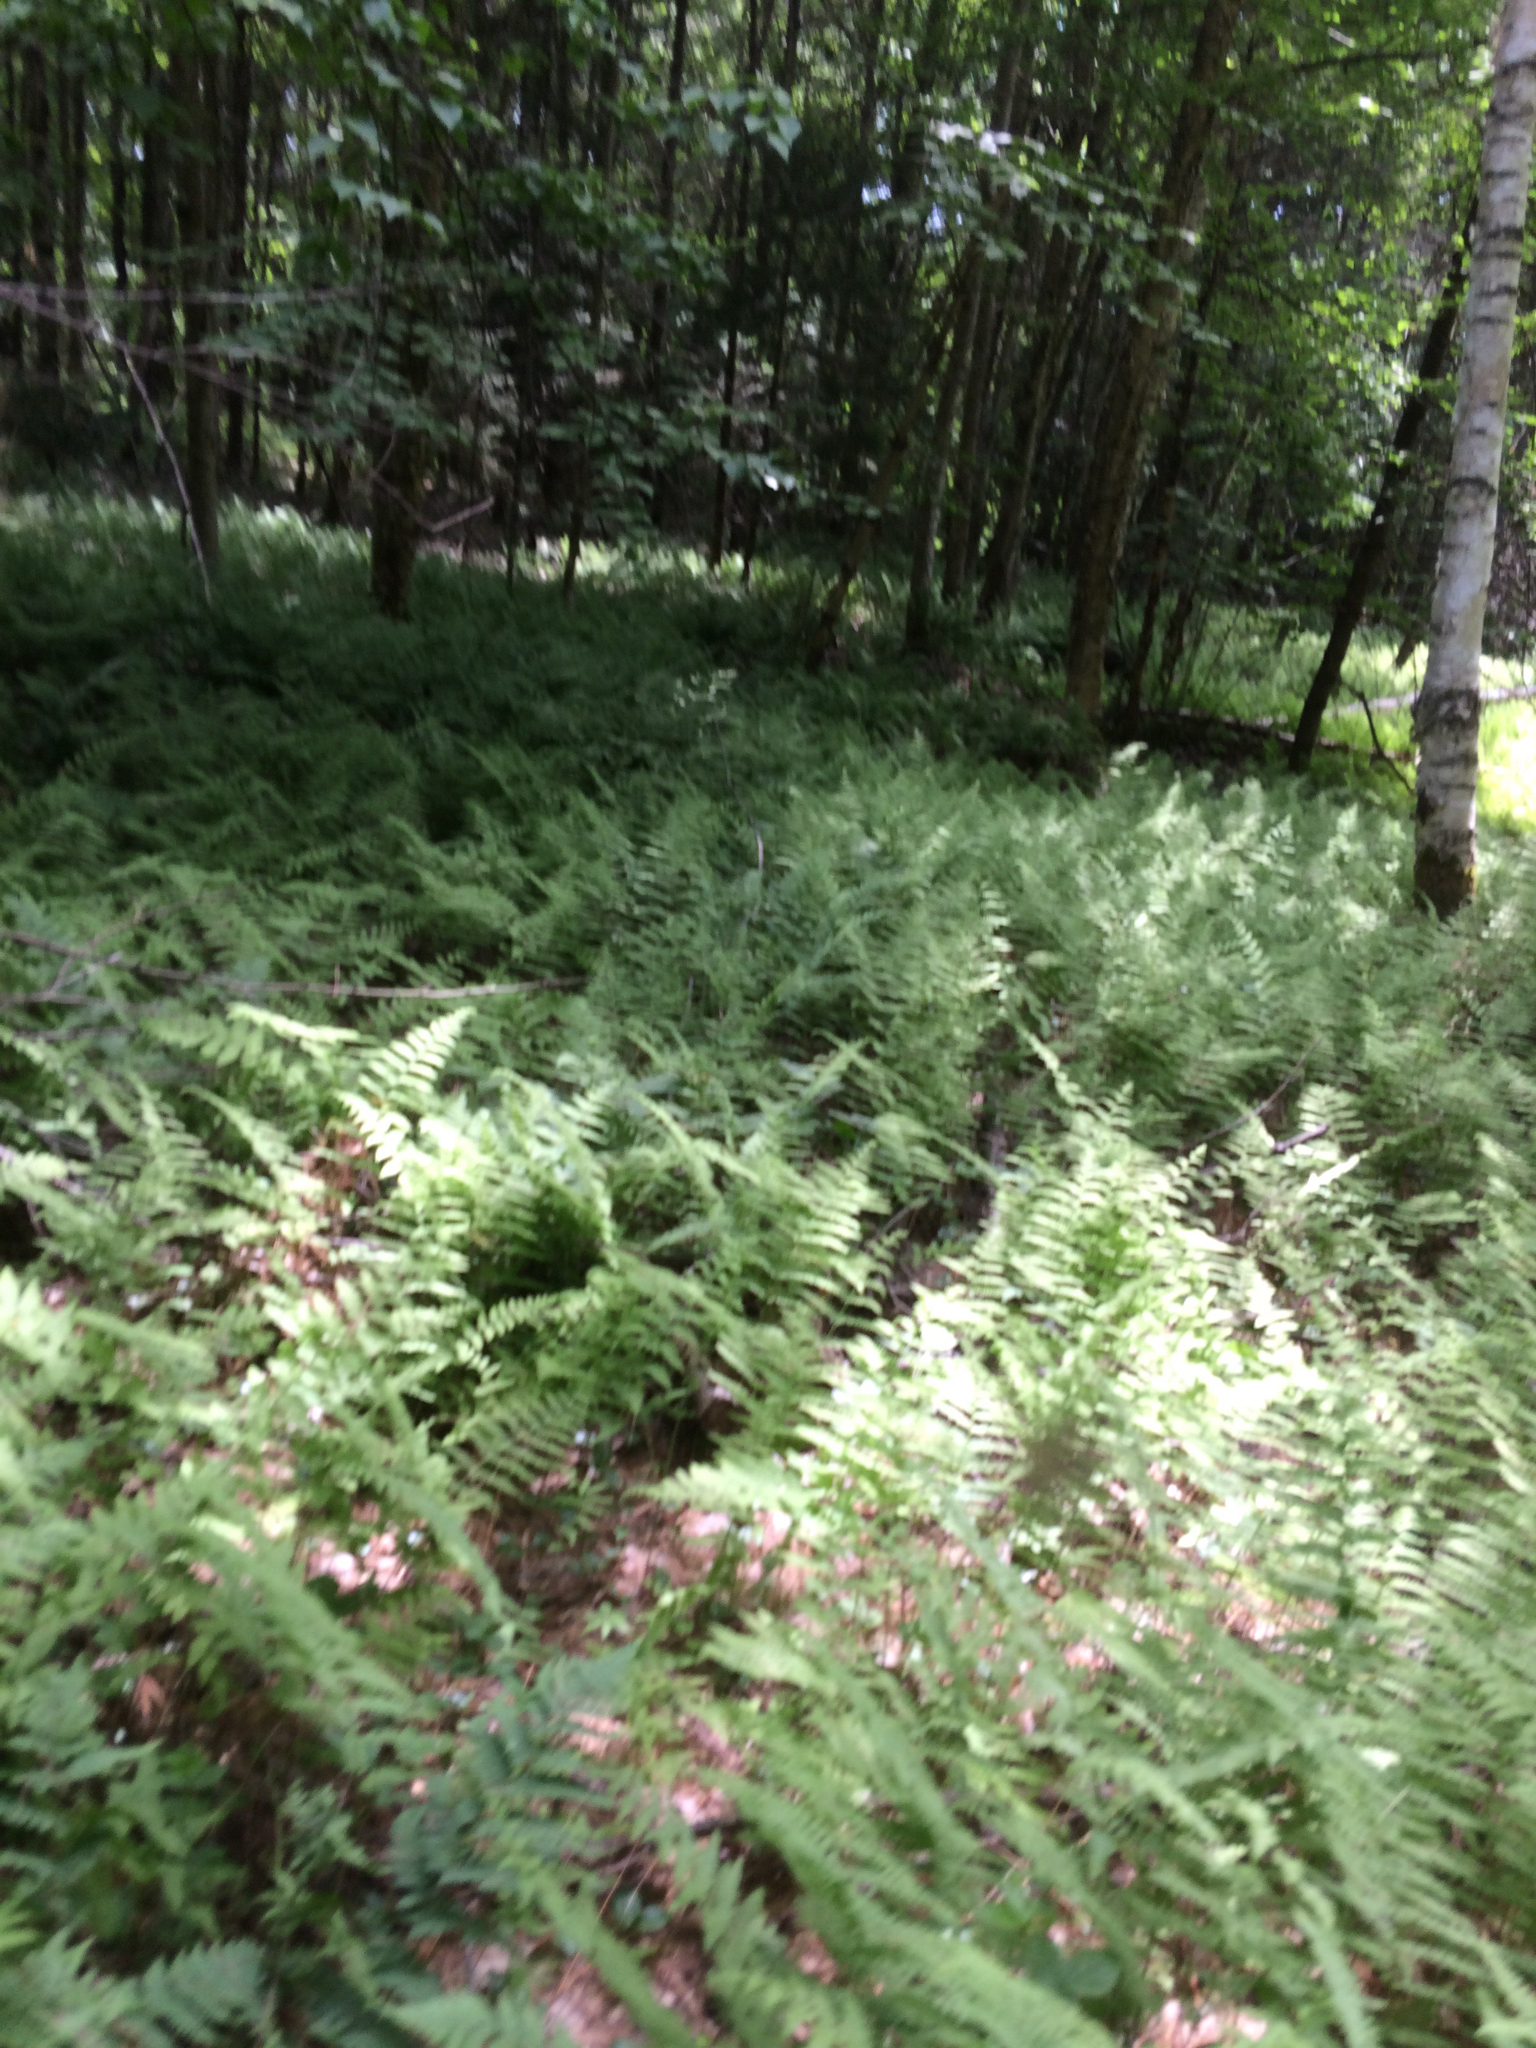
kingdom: Plantae
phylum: Tracheophyta
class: Polypodiopsida
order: Polypodiales
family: Dennstaedtiaceae
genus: Sitobolium
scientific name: Sitobolium punctilobum
